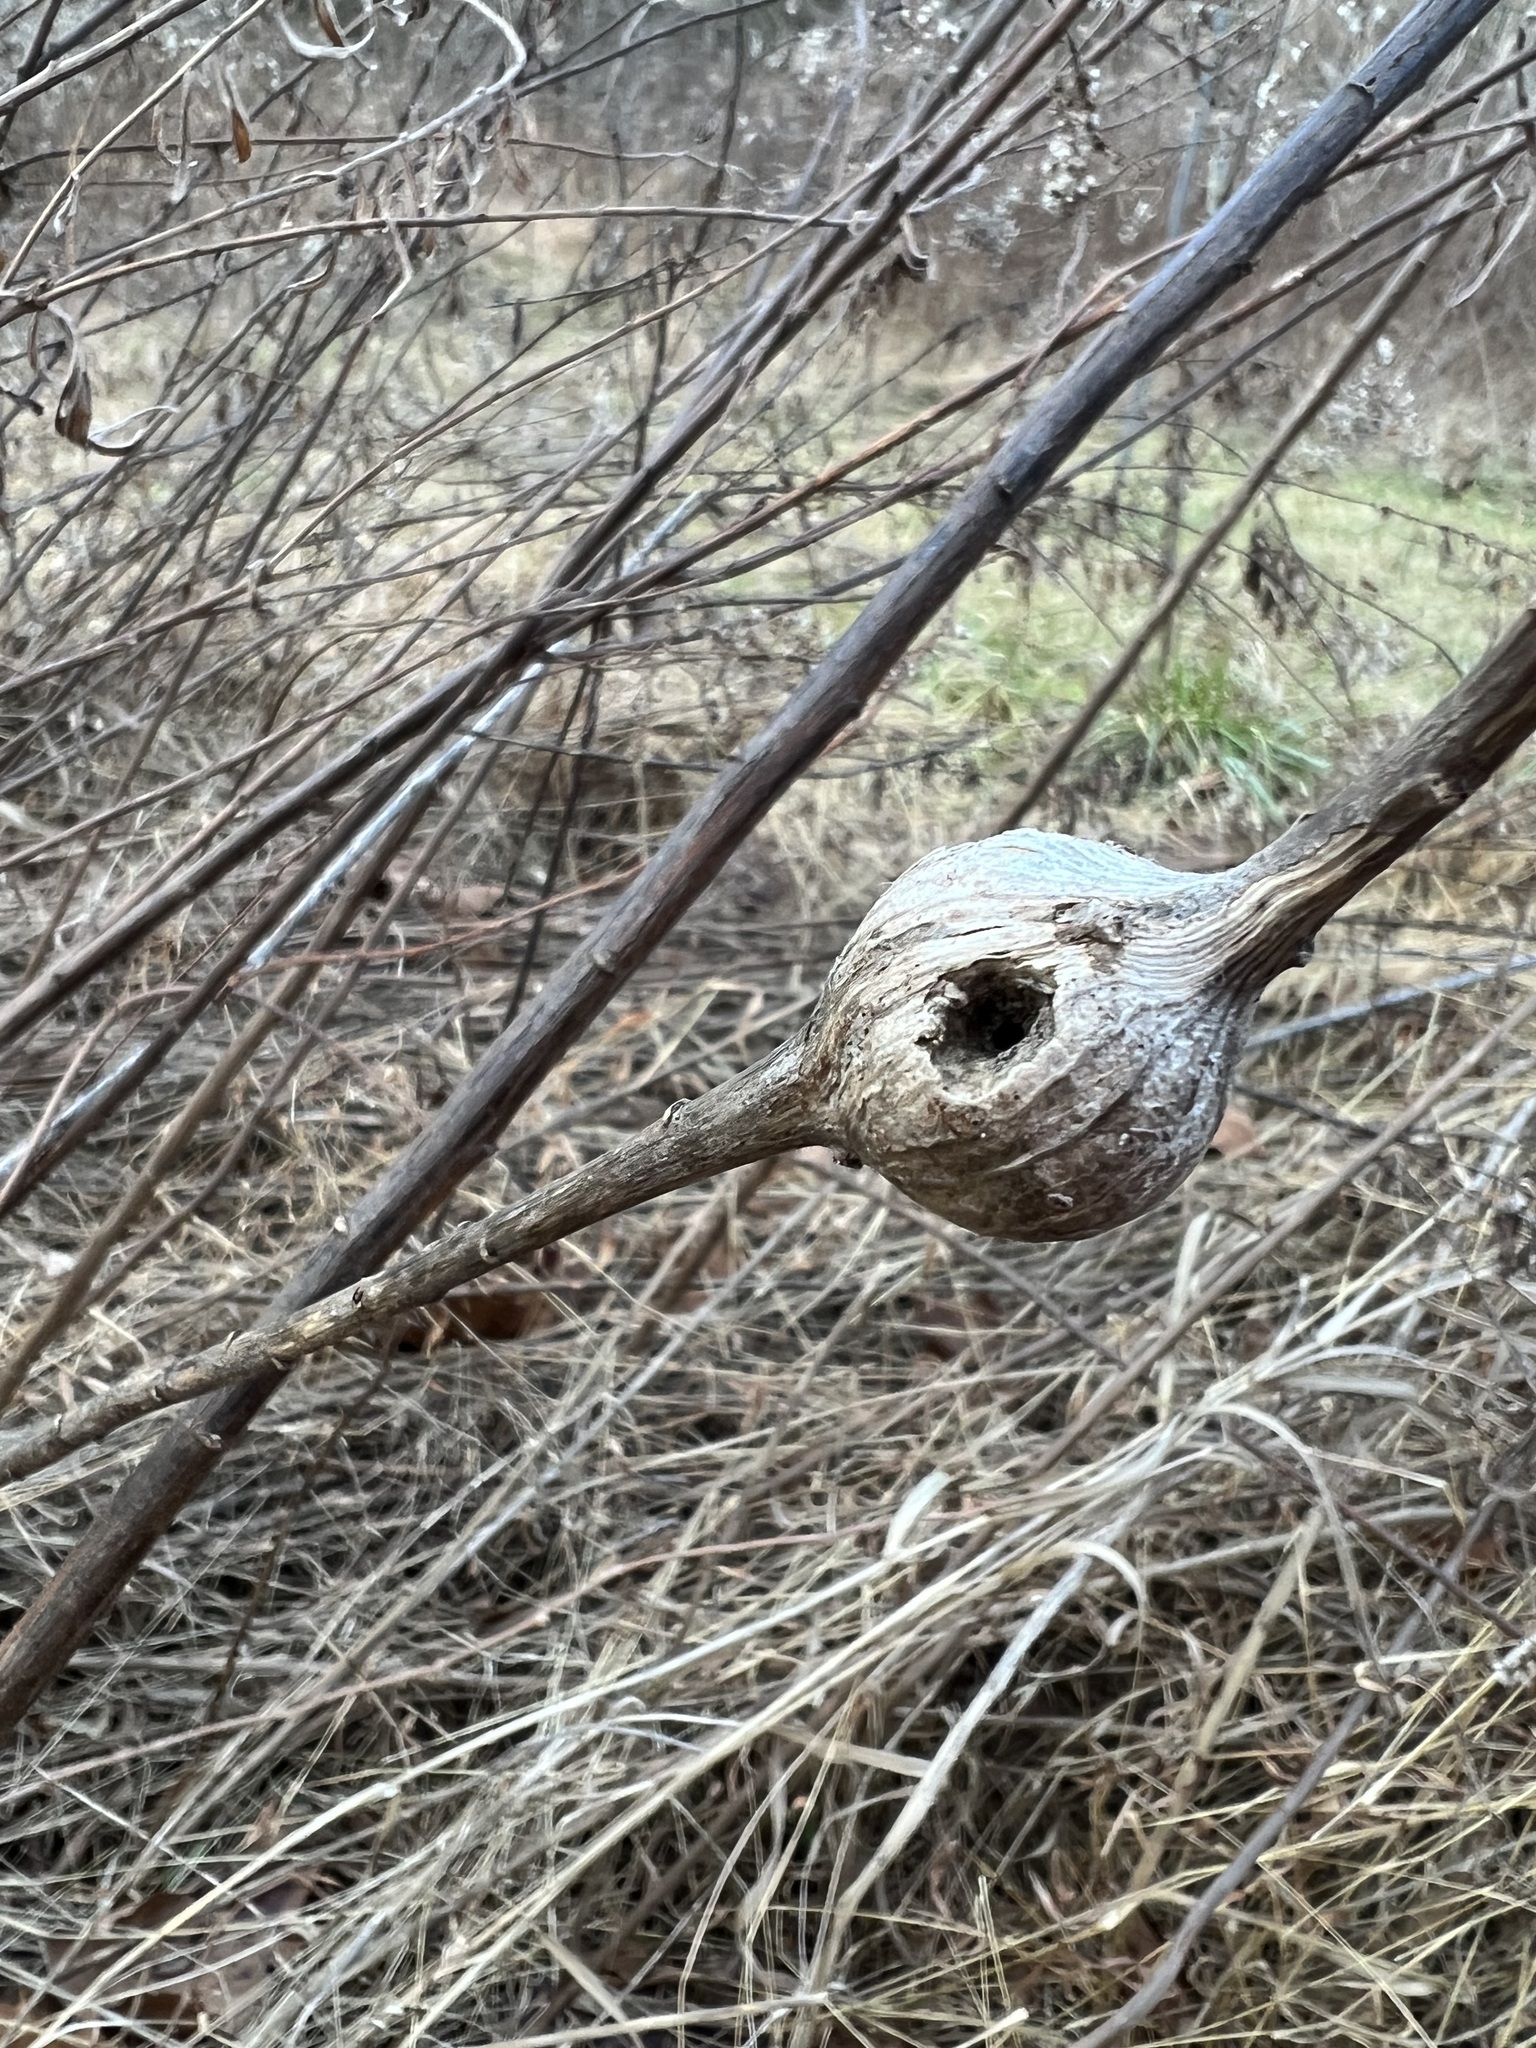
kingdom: Animalia
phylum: Arthropoda
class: Insecta
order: Diptera
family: Tephritidae
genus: Eurosta
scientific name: Eurosta solidaginis
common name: Goldenrod gall fly
